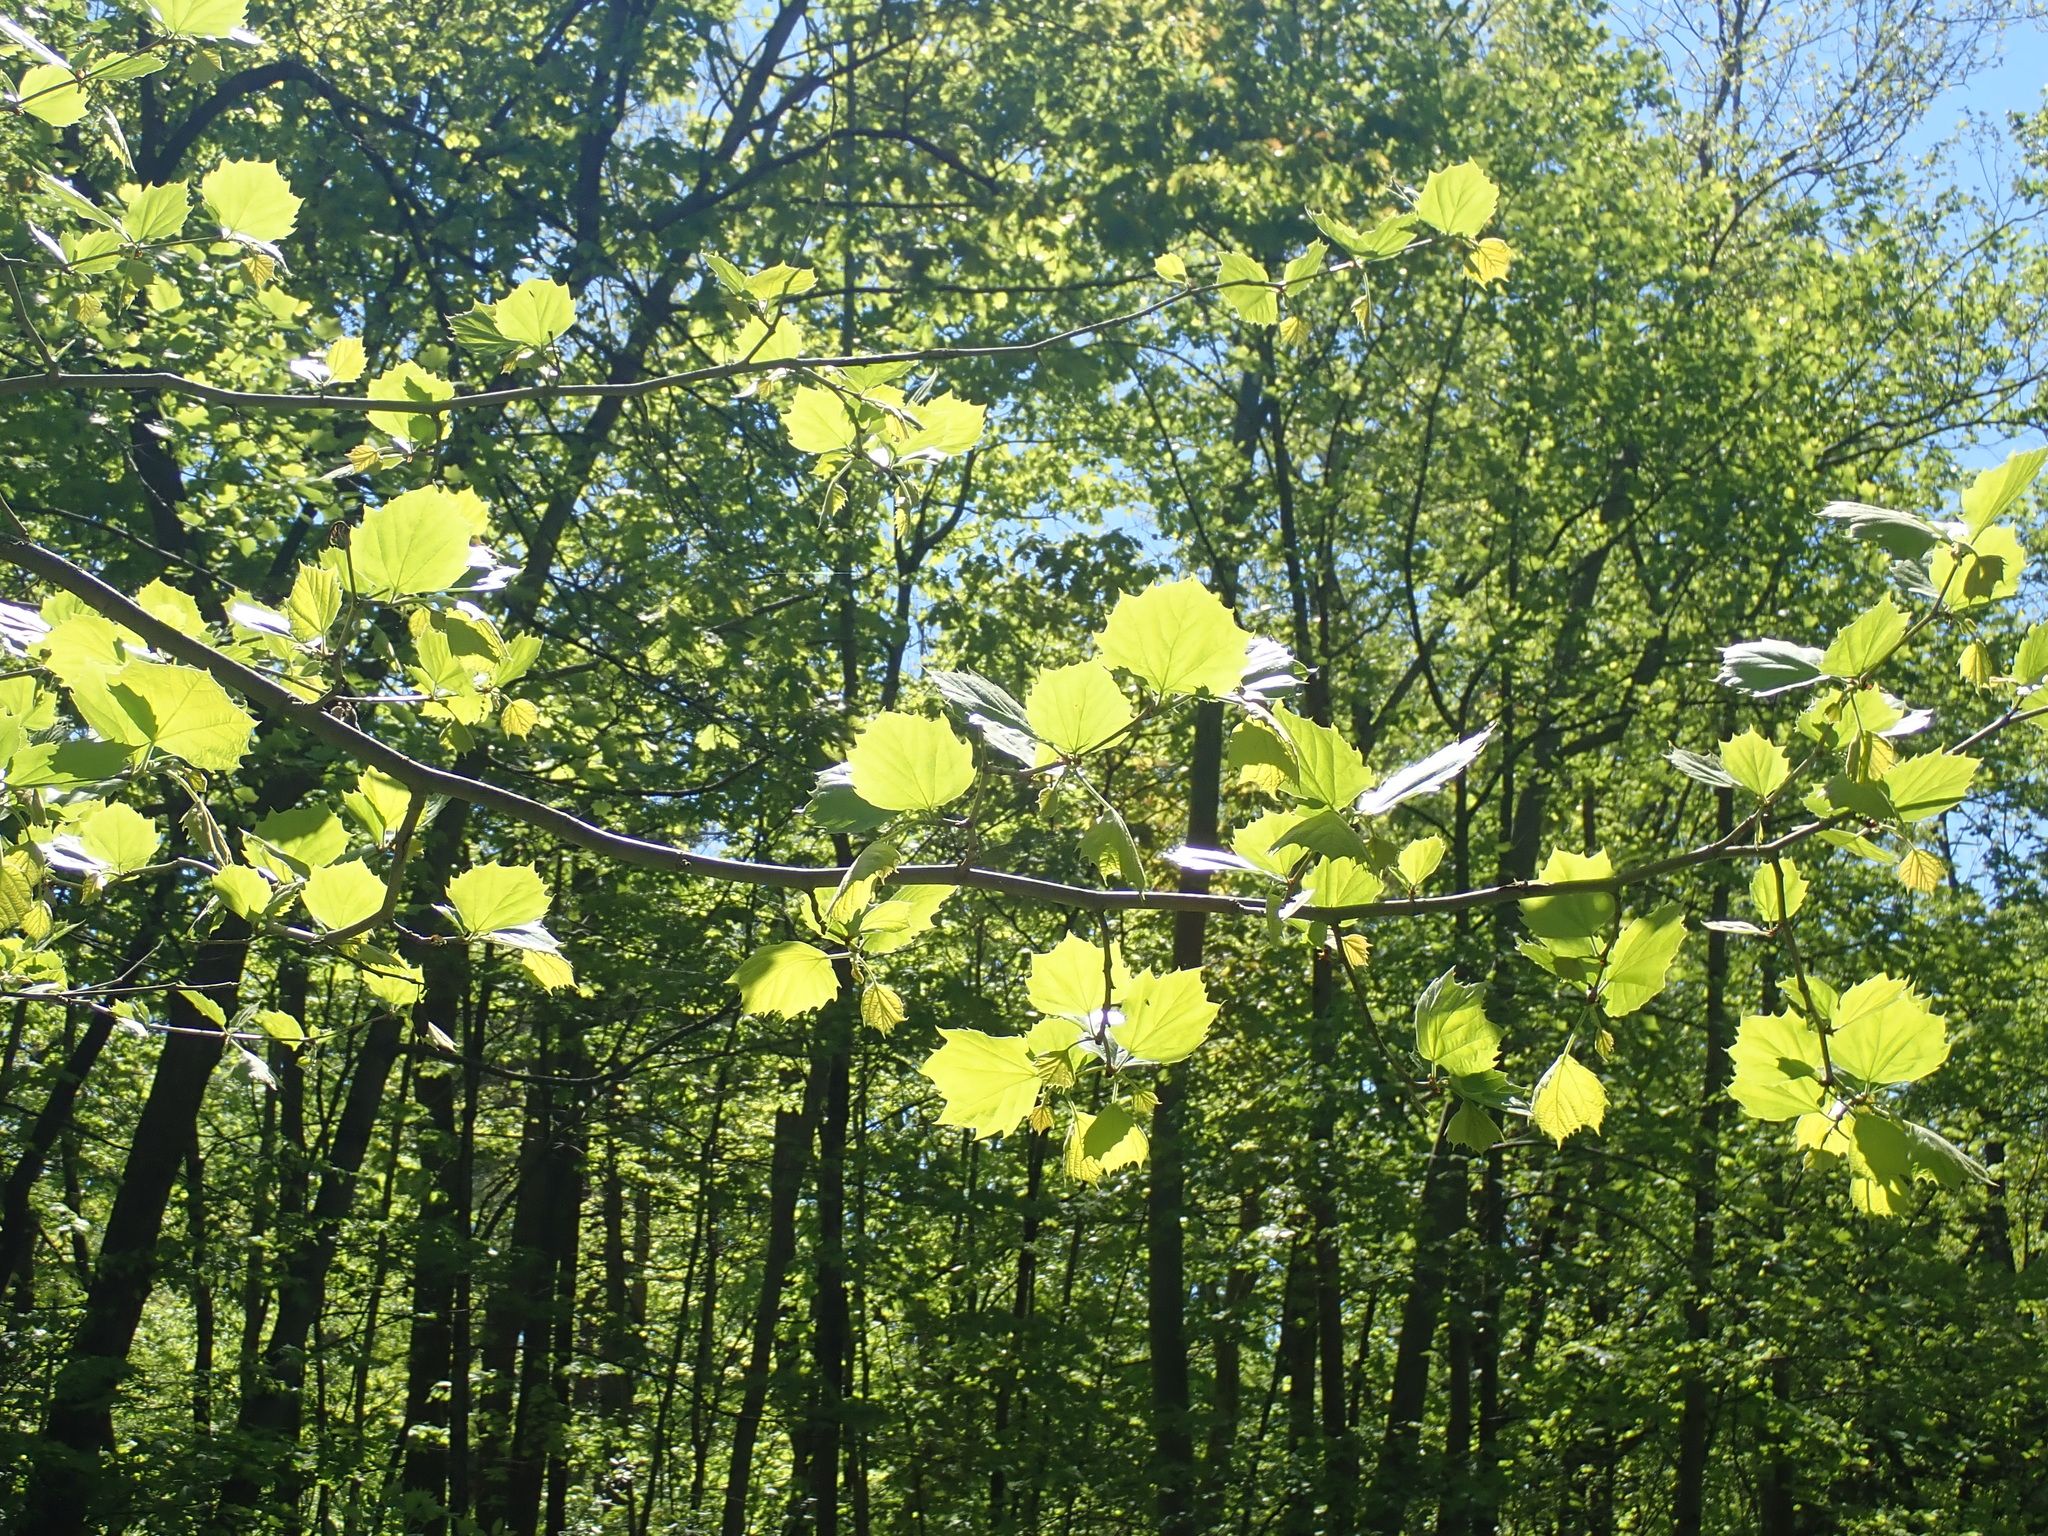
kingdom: Plantae
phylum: Tracheophyta
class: Magnoliopsida
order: Proteales
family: Platanaceae
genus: Platanus
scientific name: Platanus occidentalis
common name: American sycamore
